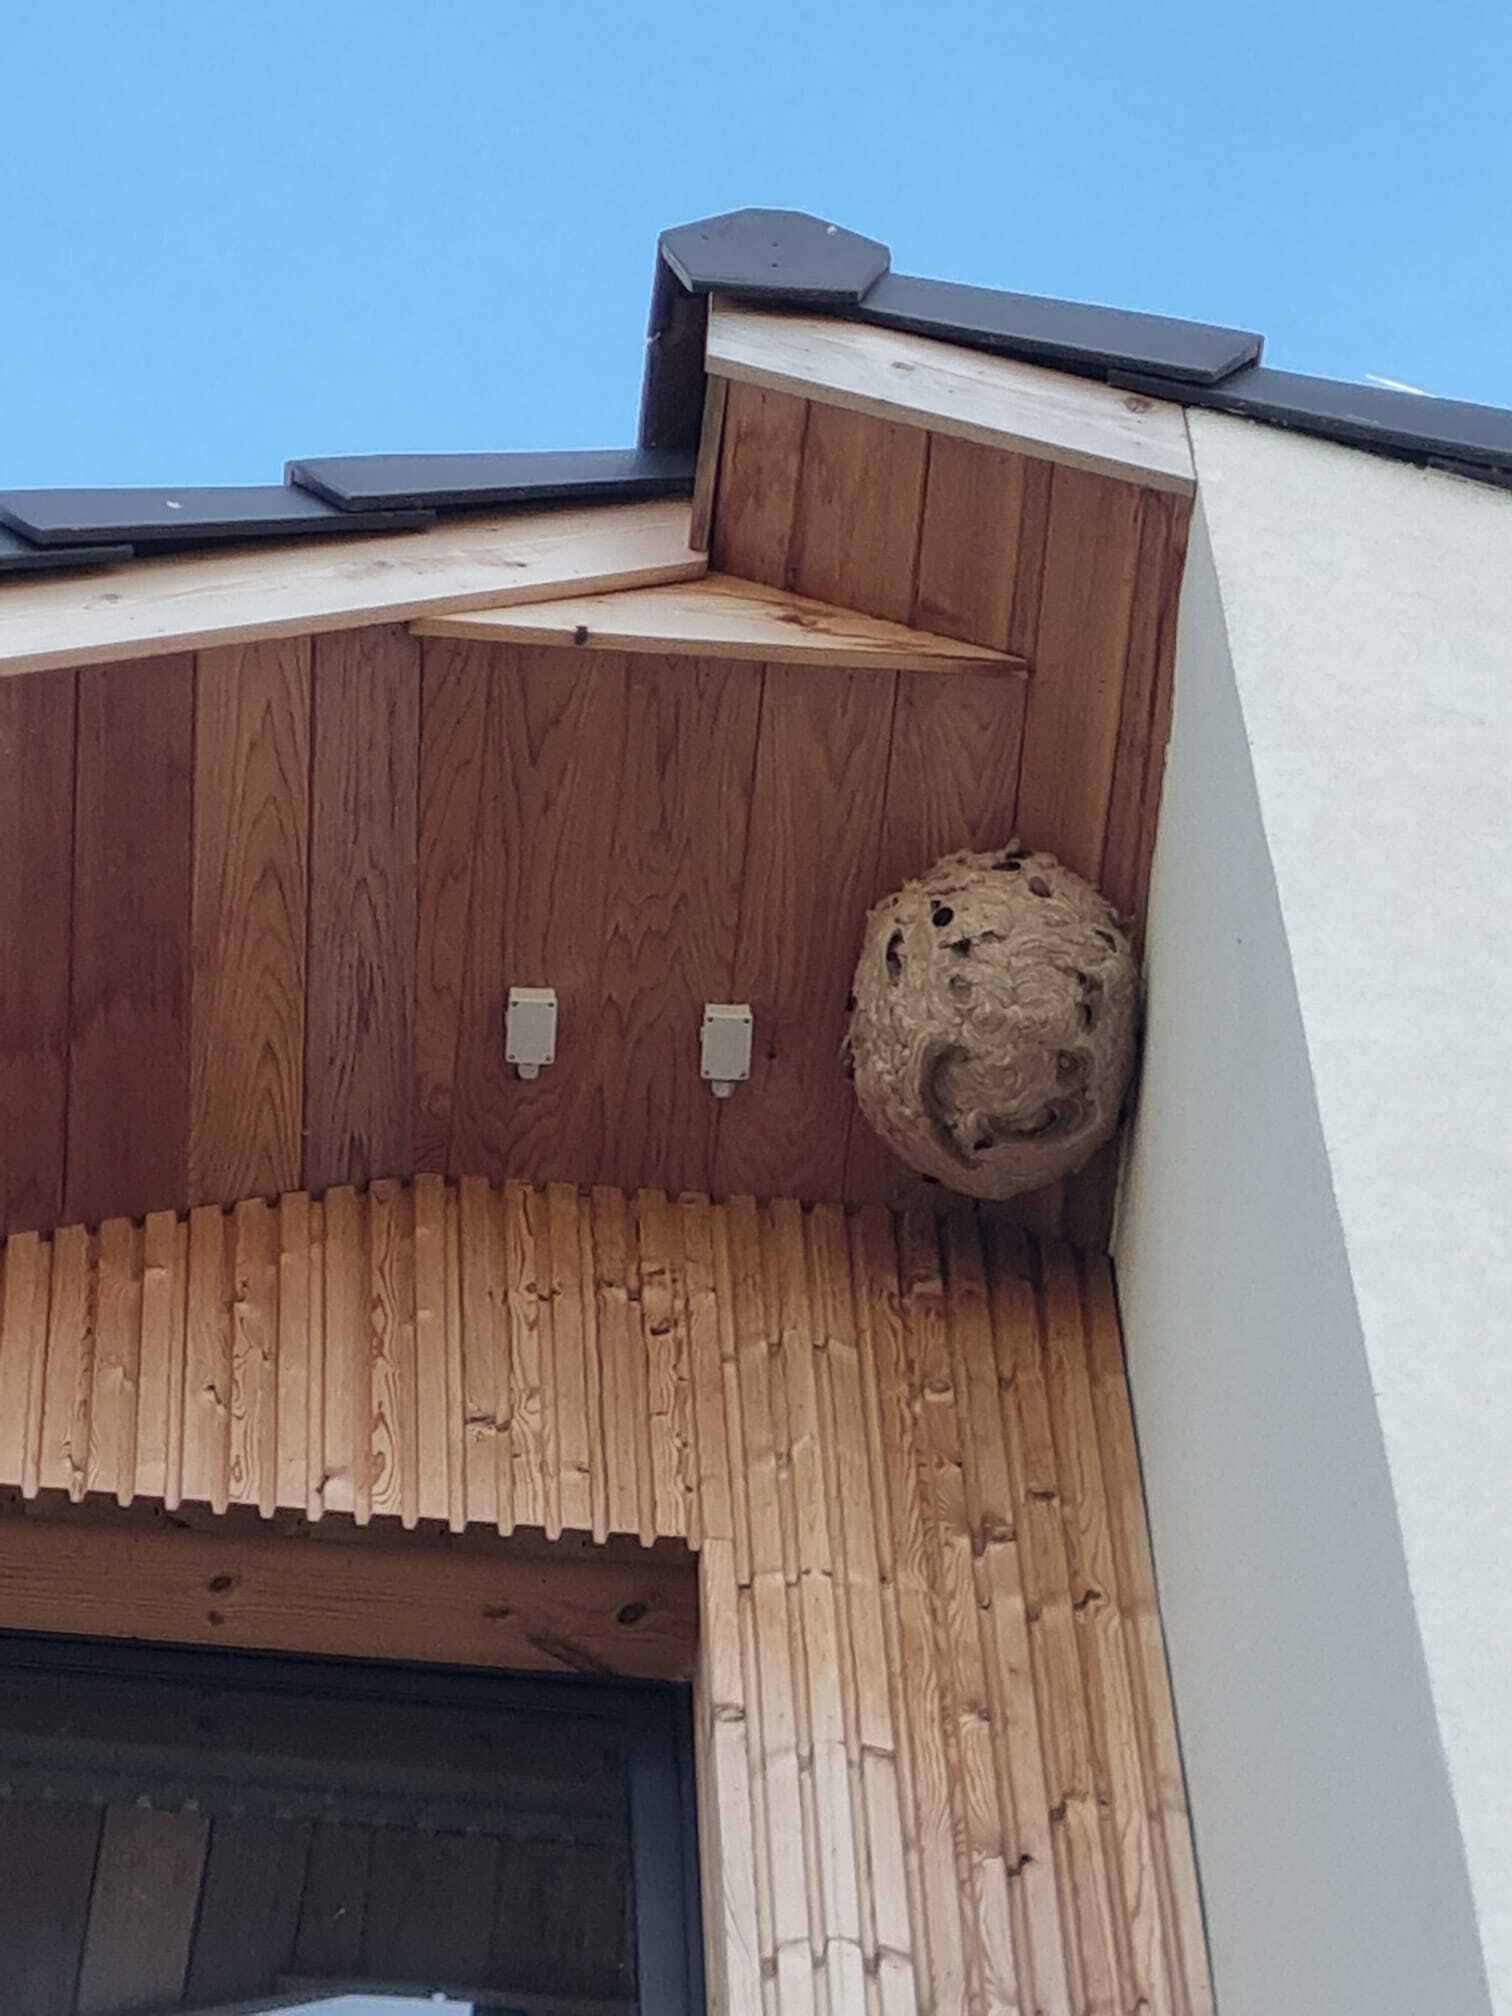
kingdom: Animalia
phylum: Arthropoda
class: Insecta
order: Hymenoptera
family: Vespidae
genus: Vespa
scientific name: Vespa velutina
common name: Asian hornet
